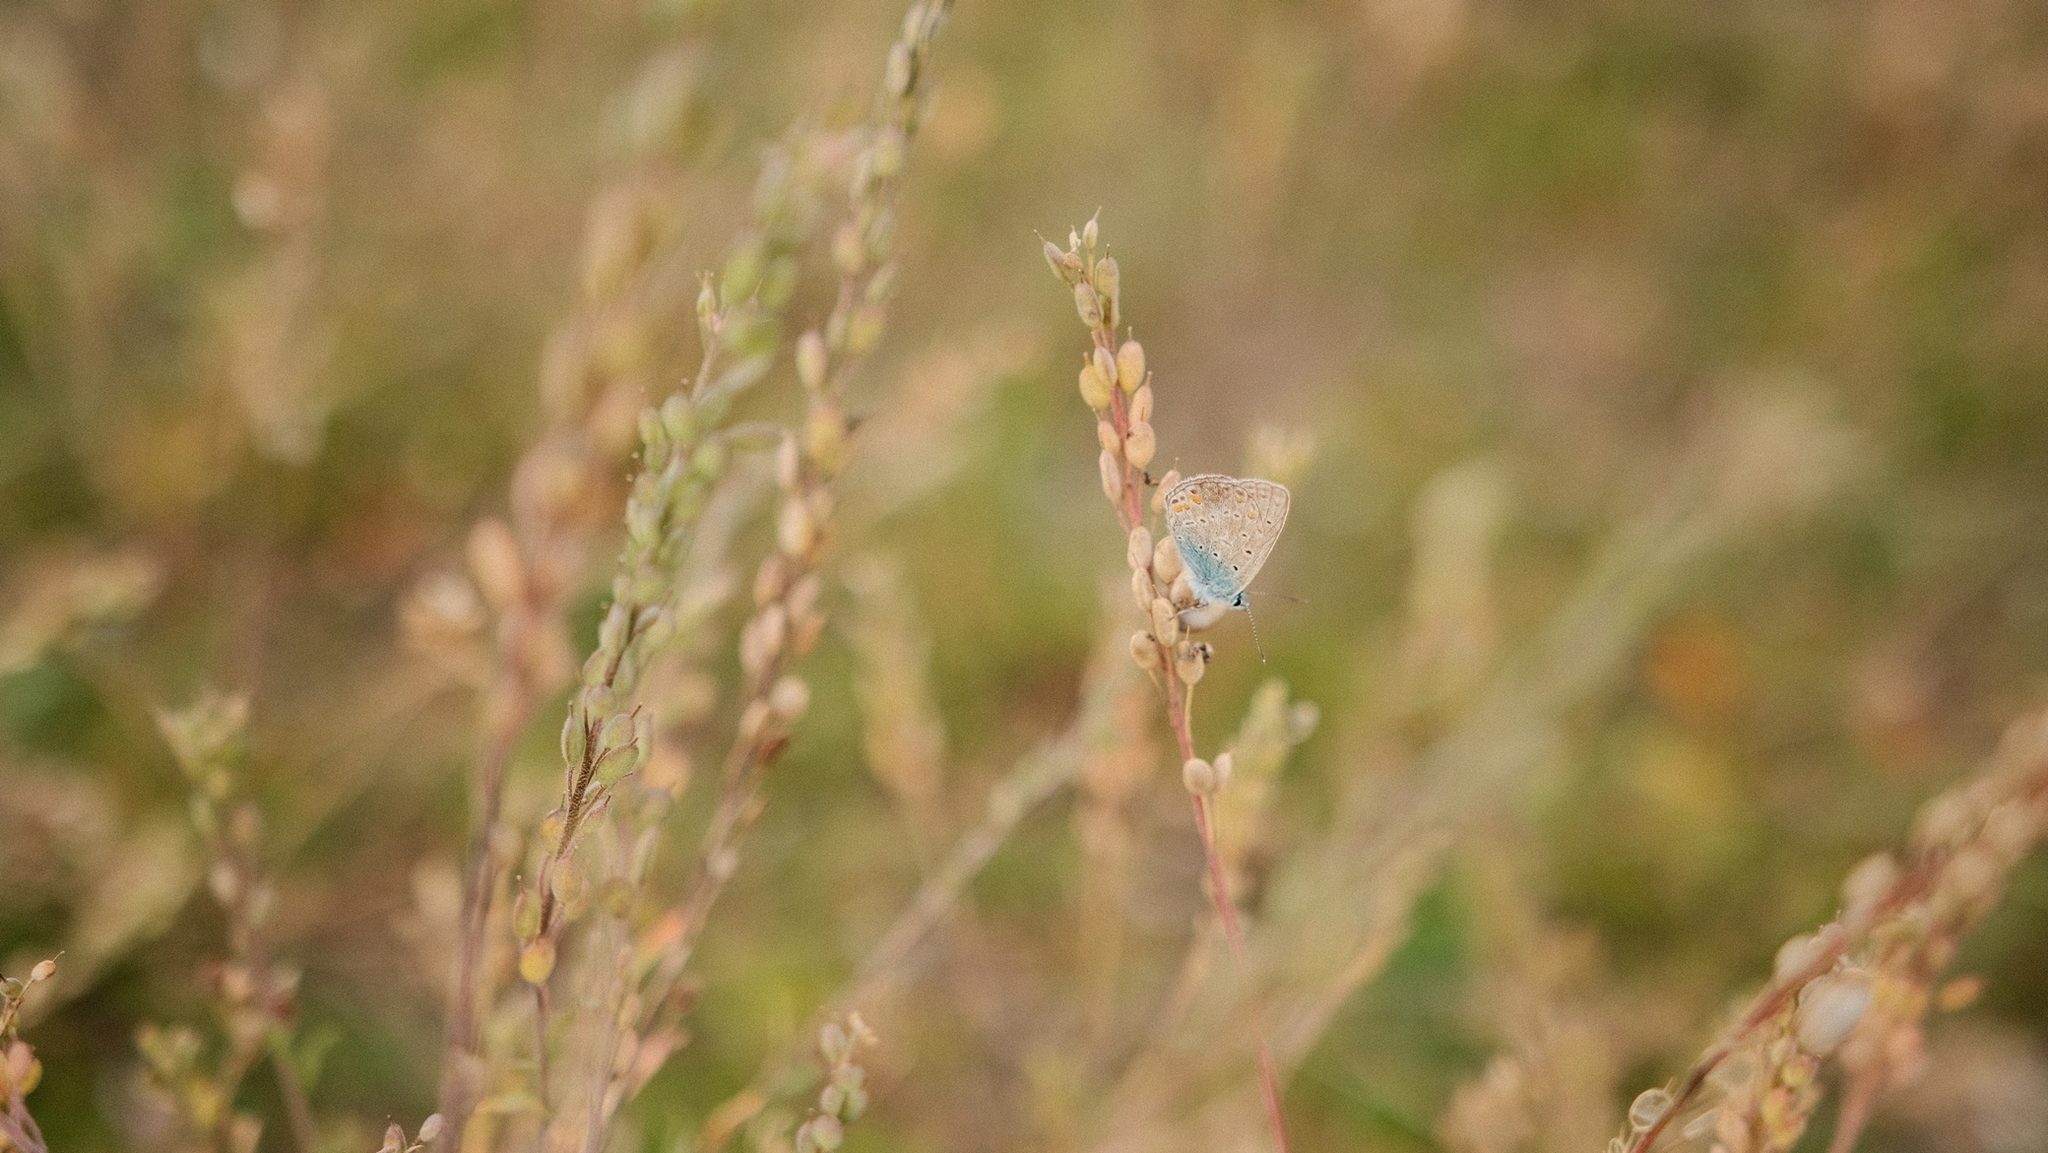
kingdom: Animalia
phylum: Arthropoda
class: Insecta
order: Lepidoptera
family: Lycaenidae
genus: Polyommatus
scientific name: Polyommatus icarus
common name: Common blue
